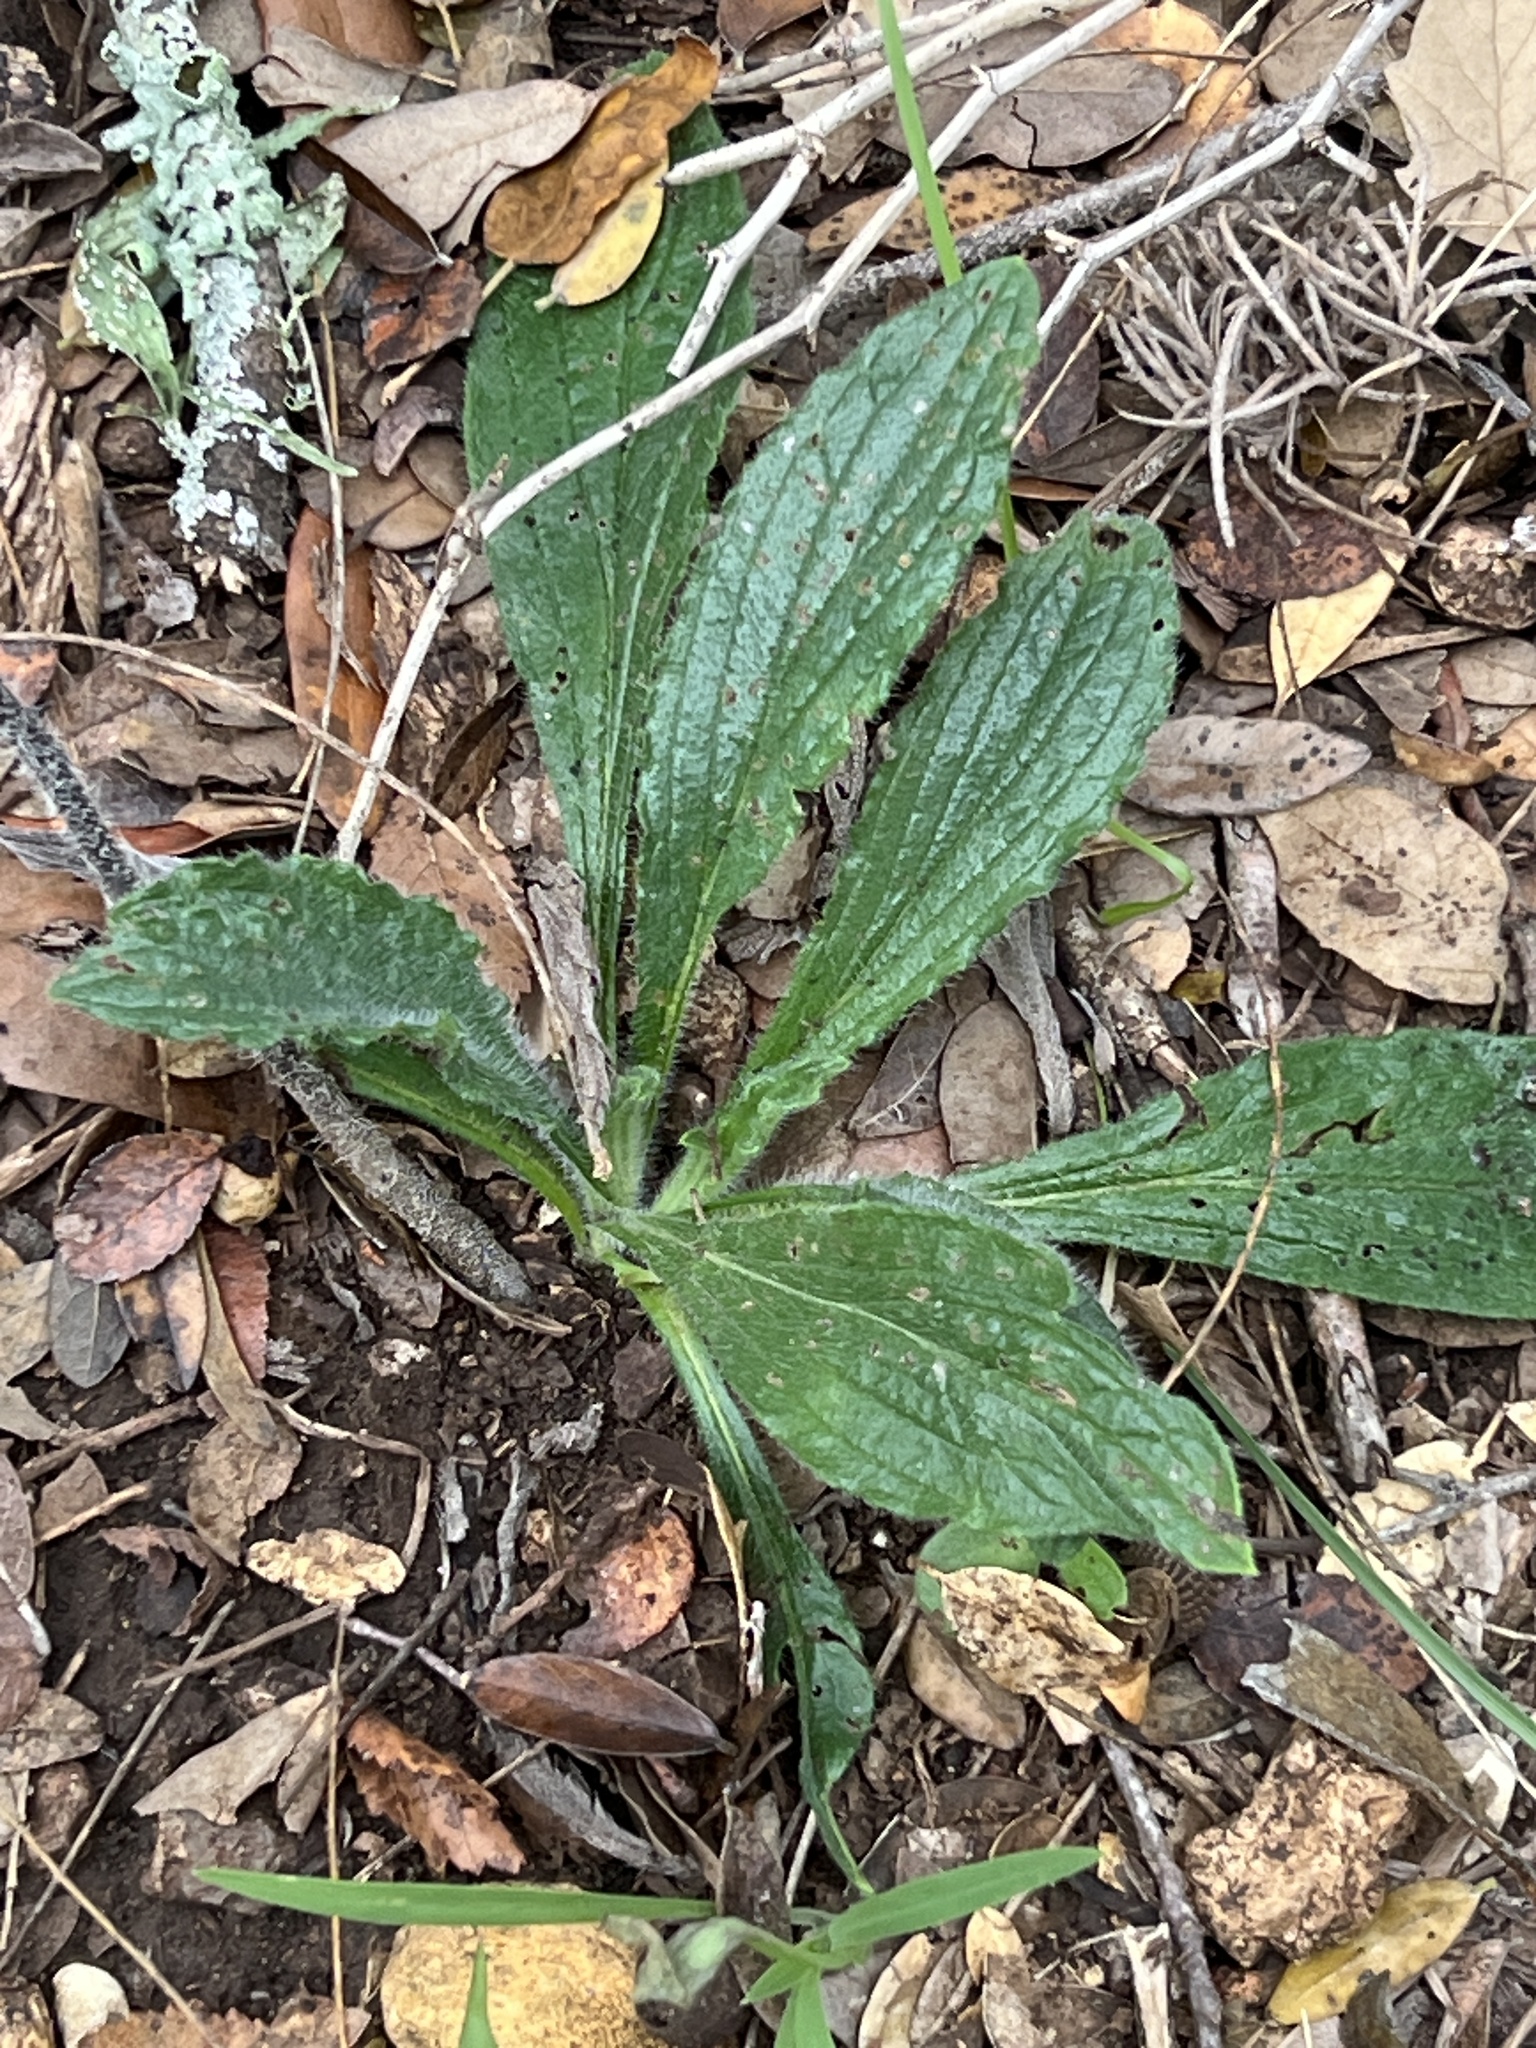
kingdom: Plantae
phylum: Tracheophyta
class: Magnoliopsida
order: Boraginales
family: Boraginaceae
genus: Lithospermum
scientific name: Lithospermum caroliniense
